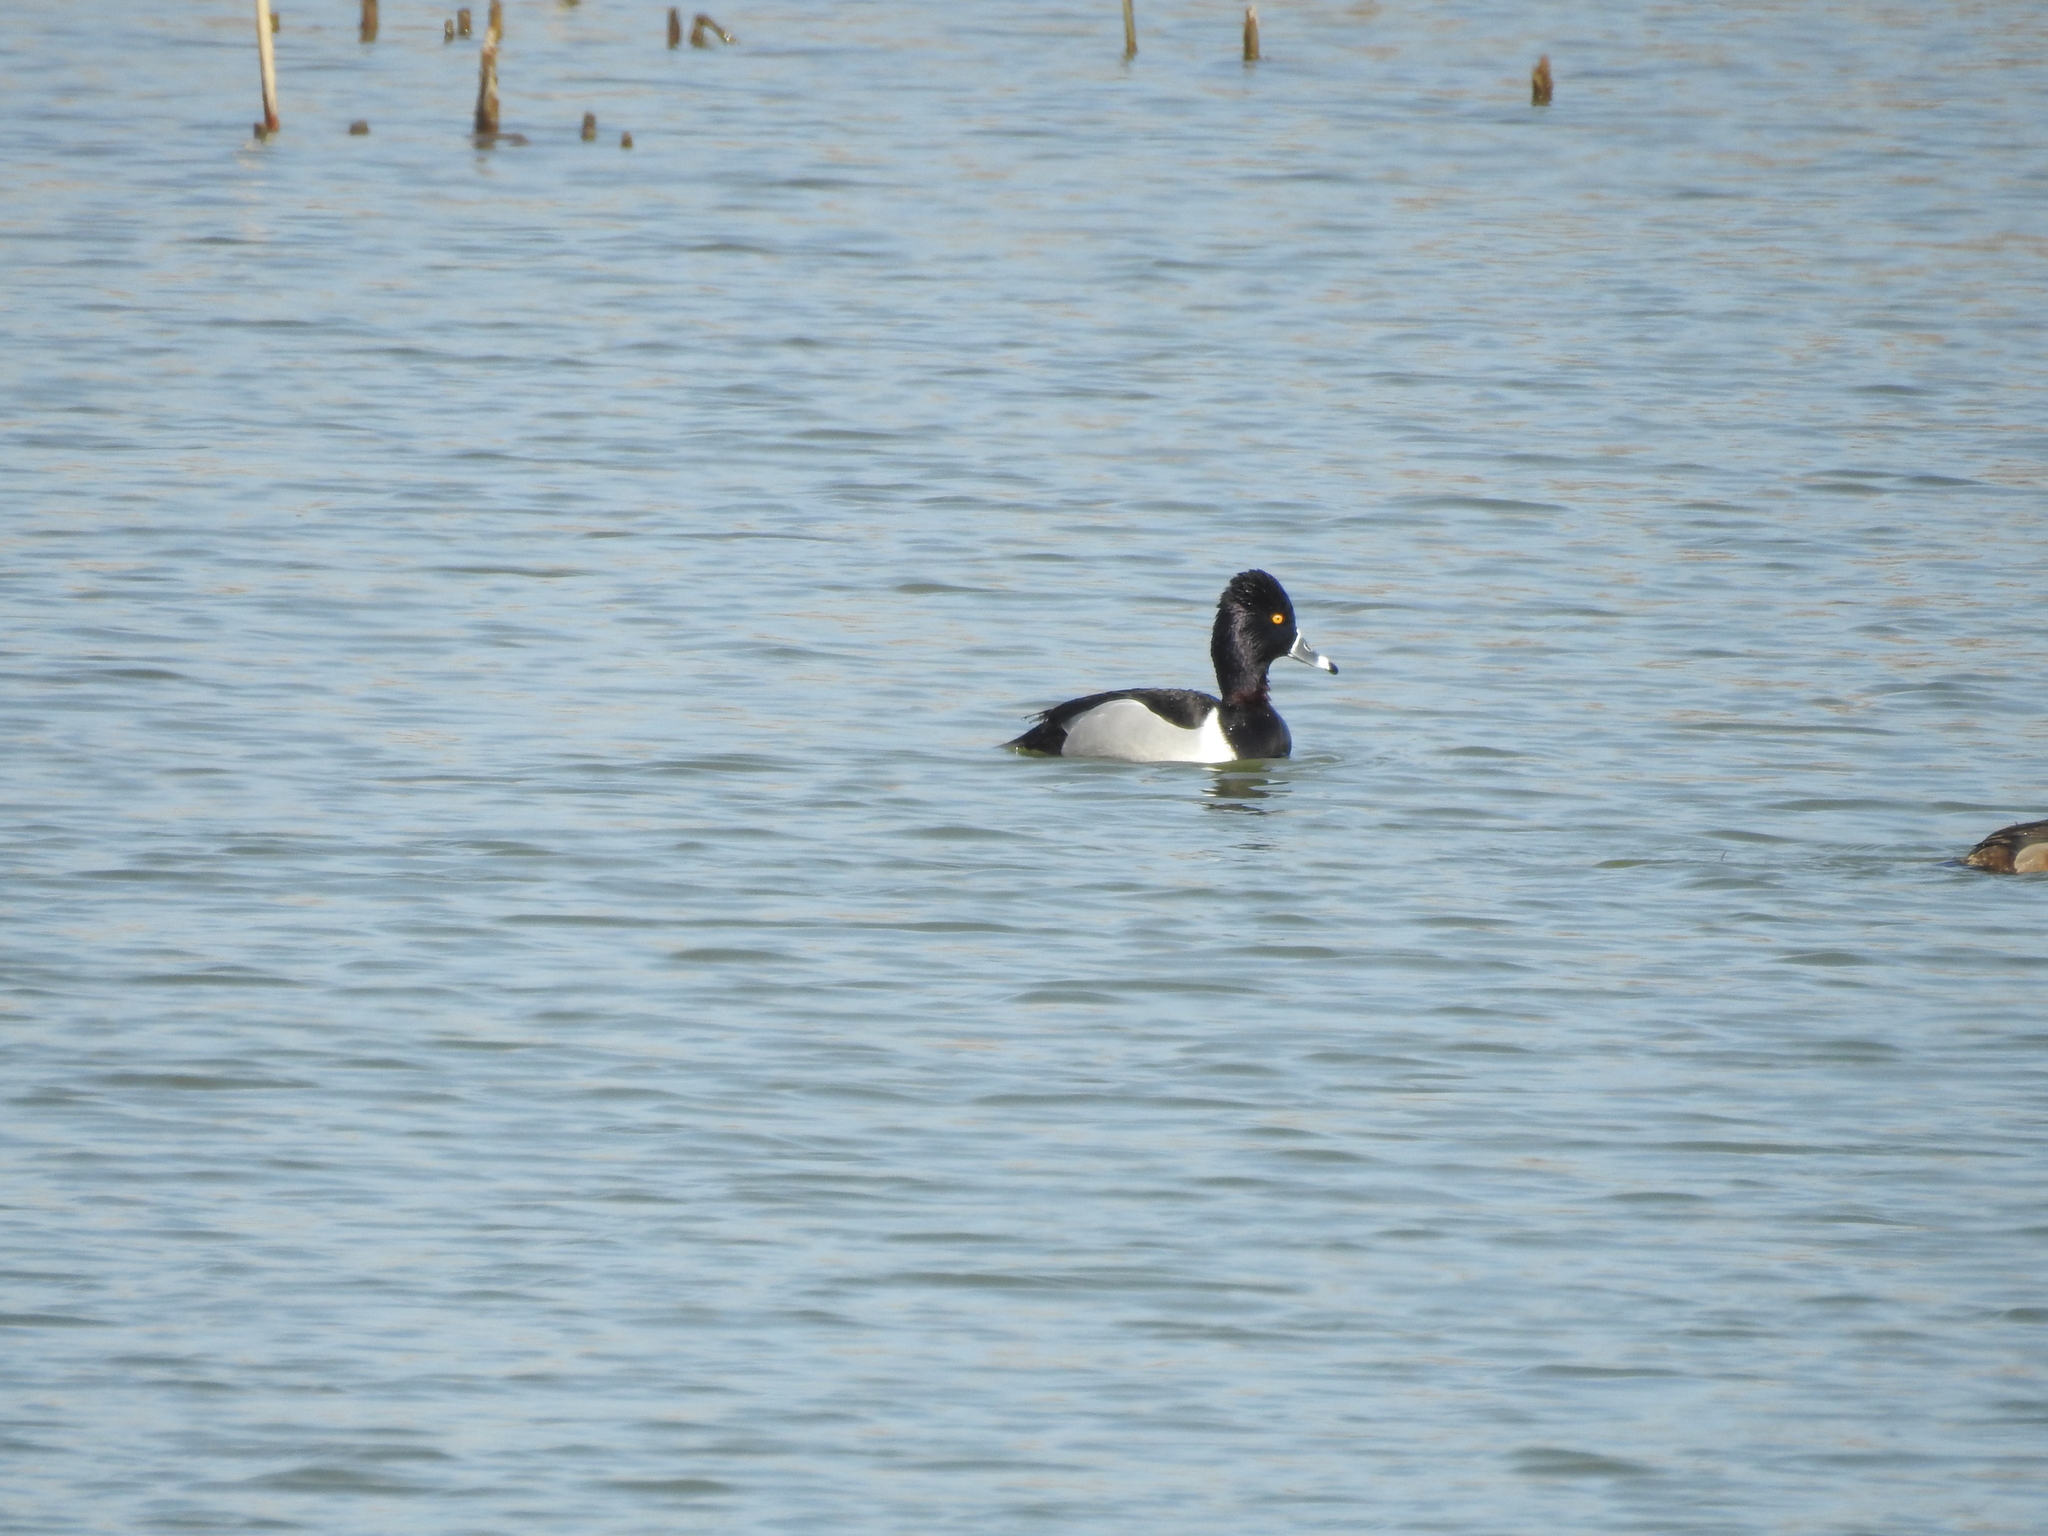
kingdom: Animalia
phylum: Chordata
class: Aves
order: Anseriformes
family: Anatidae
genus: Aythya
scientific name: Aythya collaris
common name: Ring-necked duck
